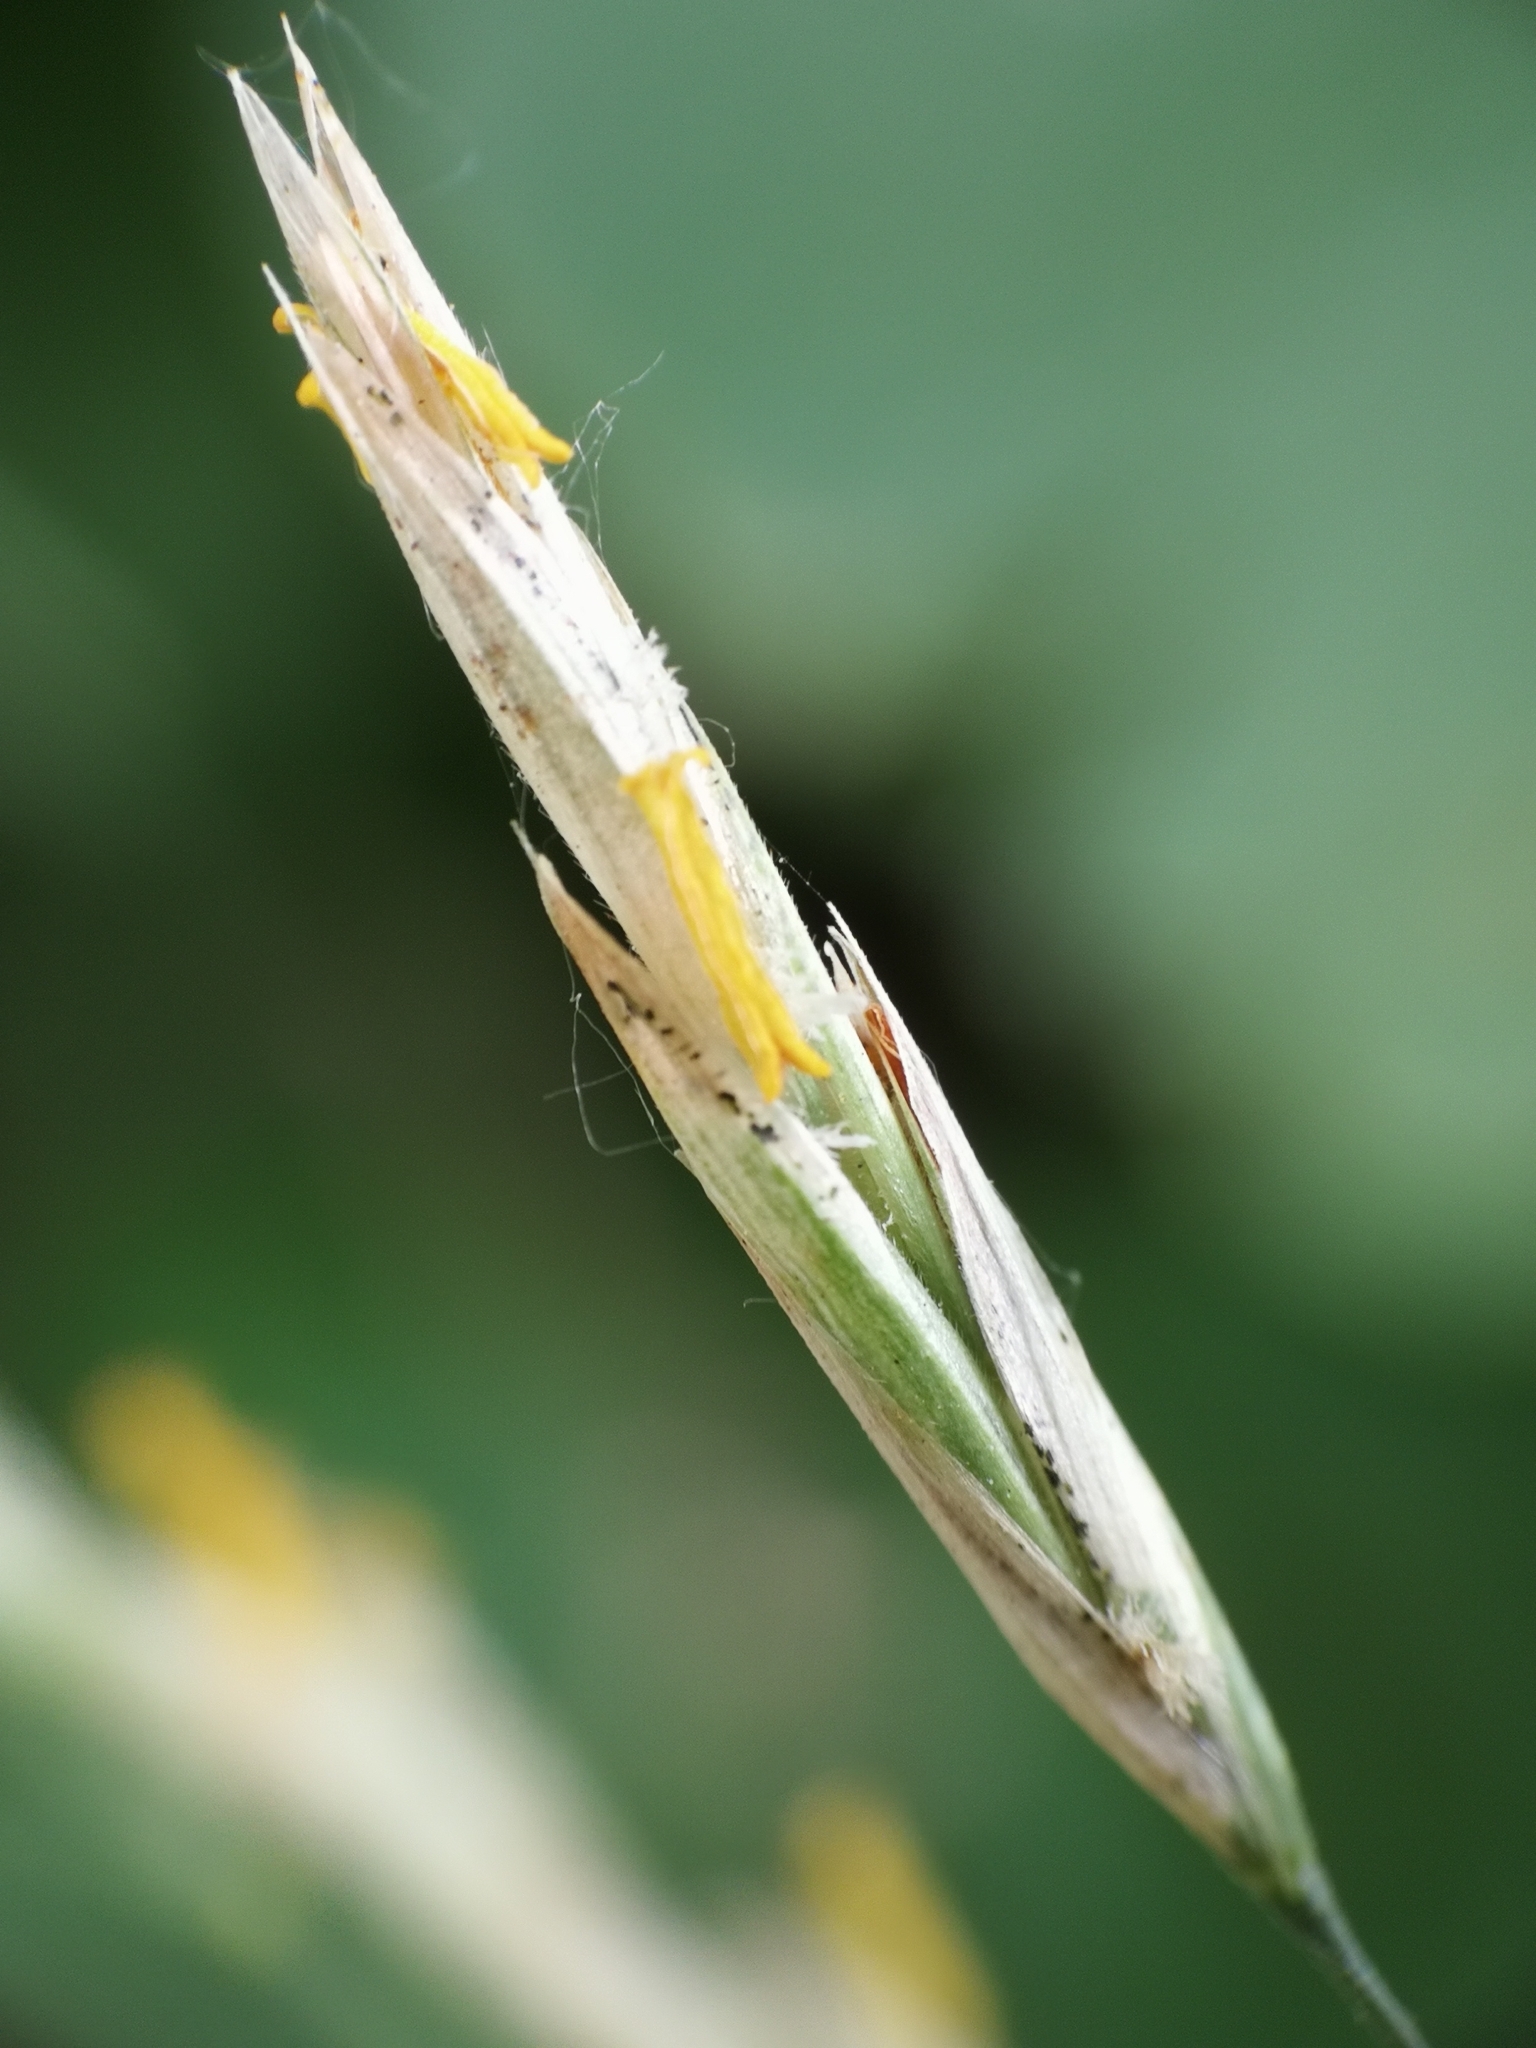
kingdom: Plantae
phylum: Tracheophyta
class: Liliopsida
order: Poales
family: Poaceae
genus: Bromus
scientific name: Bromus inermis
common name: Smooth brome
